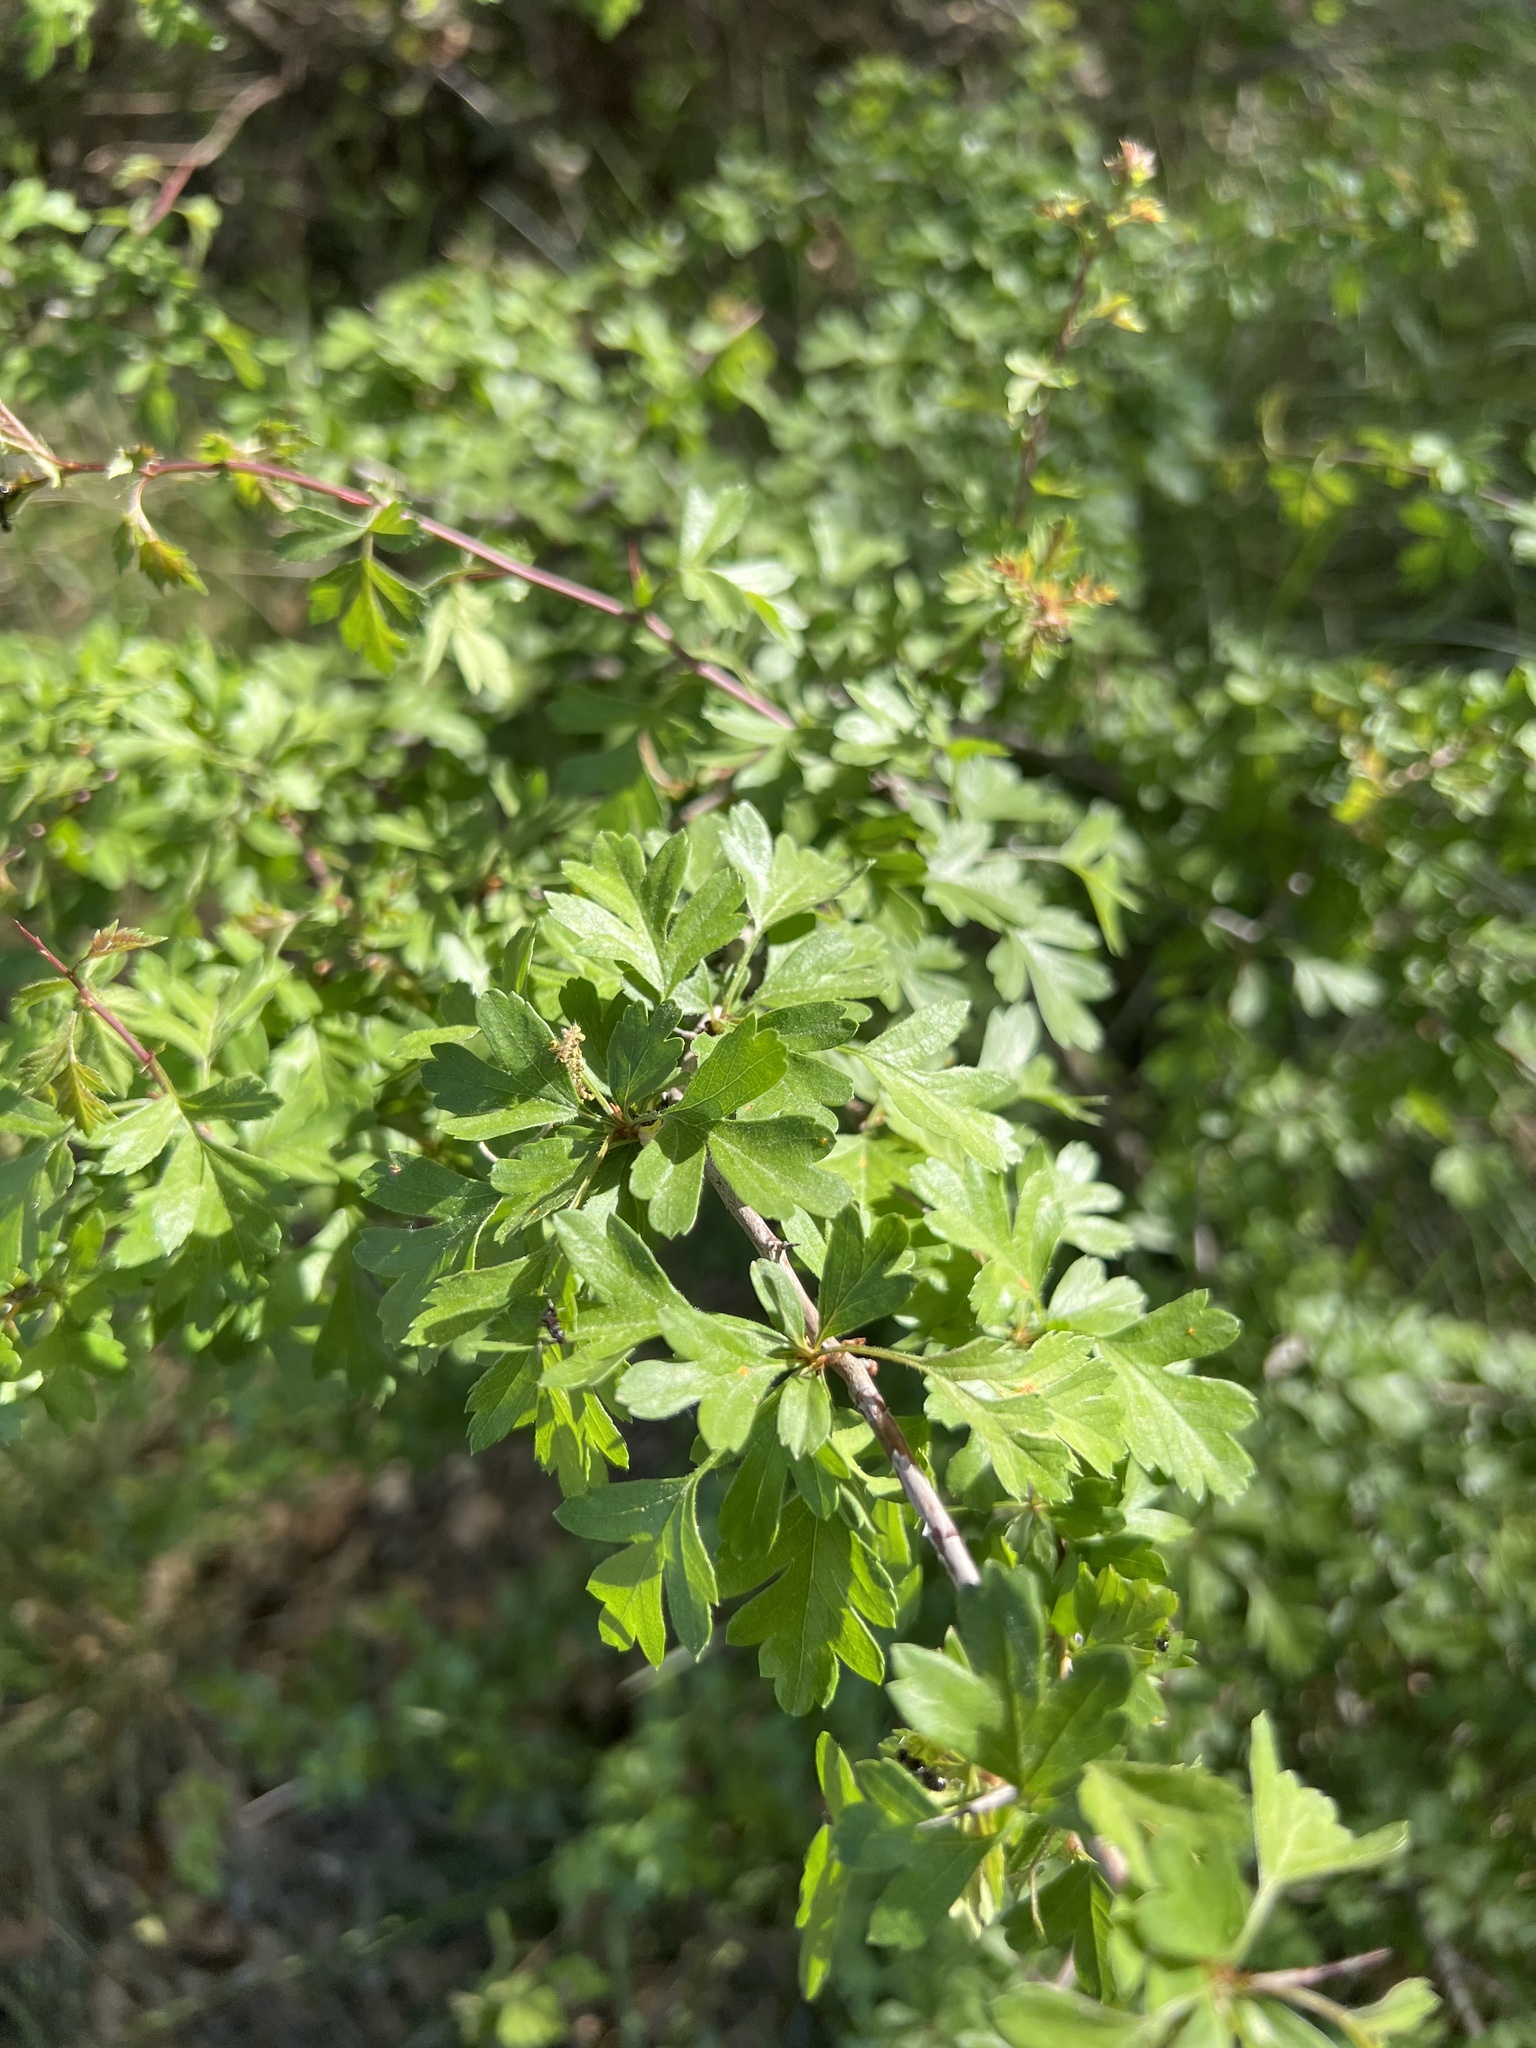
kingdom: Plantae
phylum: Tracheophyta
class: Magnoliopsida
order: Rosales
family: Rosaceae
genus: Crataegus
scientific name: Crataegus monogyna
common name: Hawthorn
